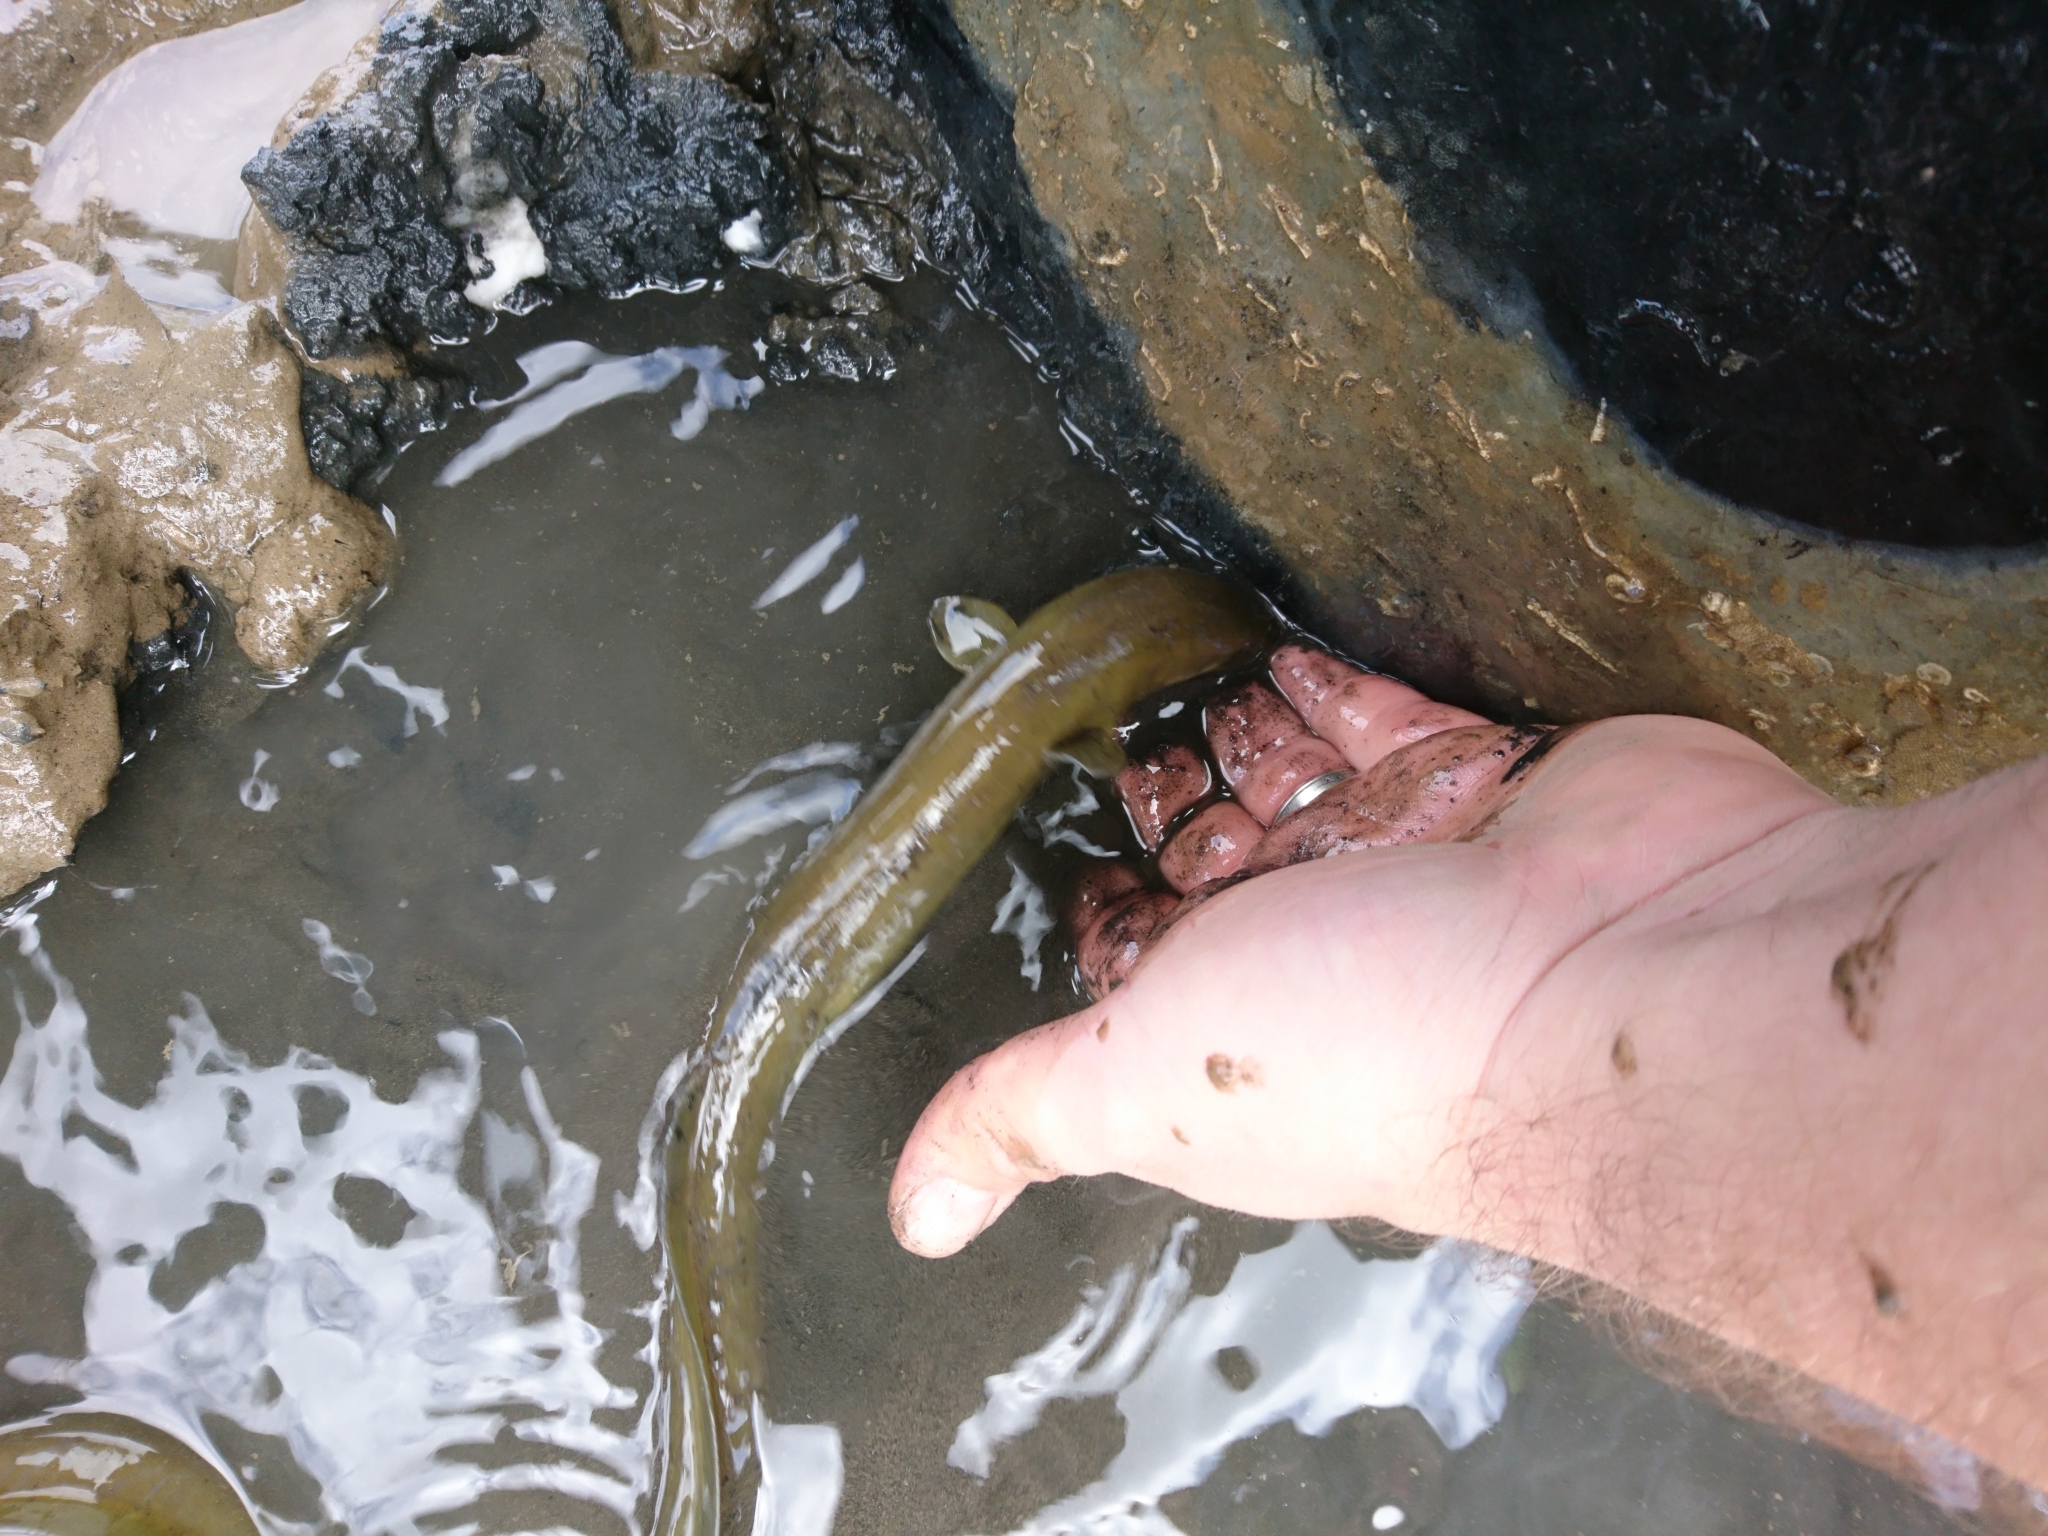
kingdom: Animalia
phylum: Chordata
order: Anguilliformes
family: Anguillidae
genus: Anguilla
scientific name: Anguilla anguilla
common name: European eel
